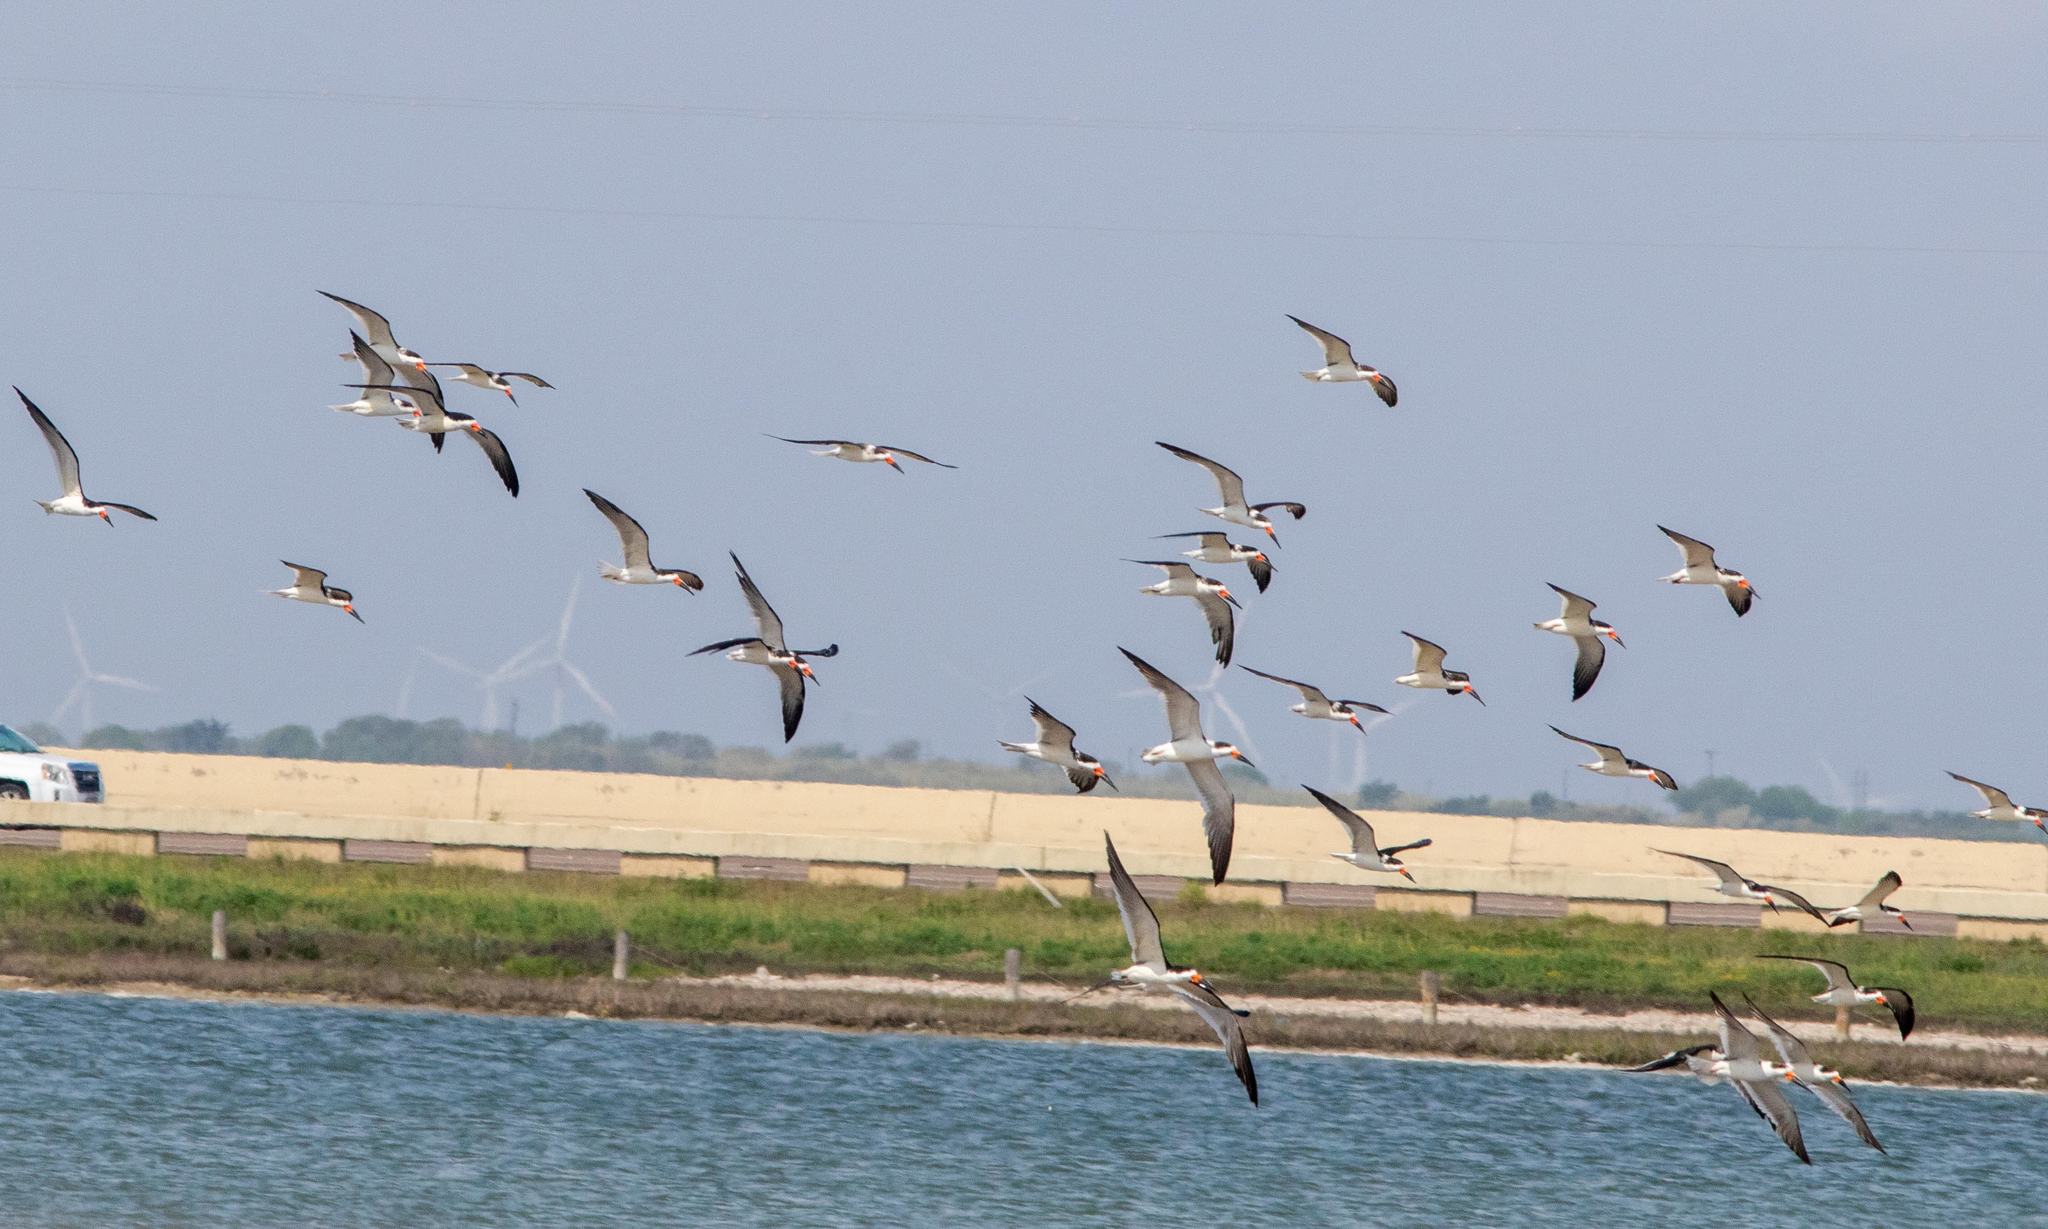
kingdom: Animalia
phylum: Chordata
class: Aves
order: Charadriiformes
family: Laridae
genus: Rynchops
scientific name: Rynchops niger
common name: Black skimmer
